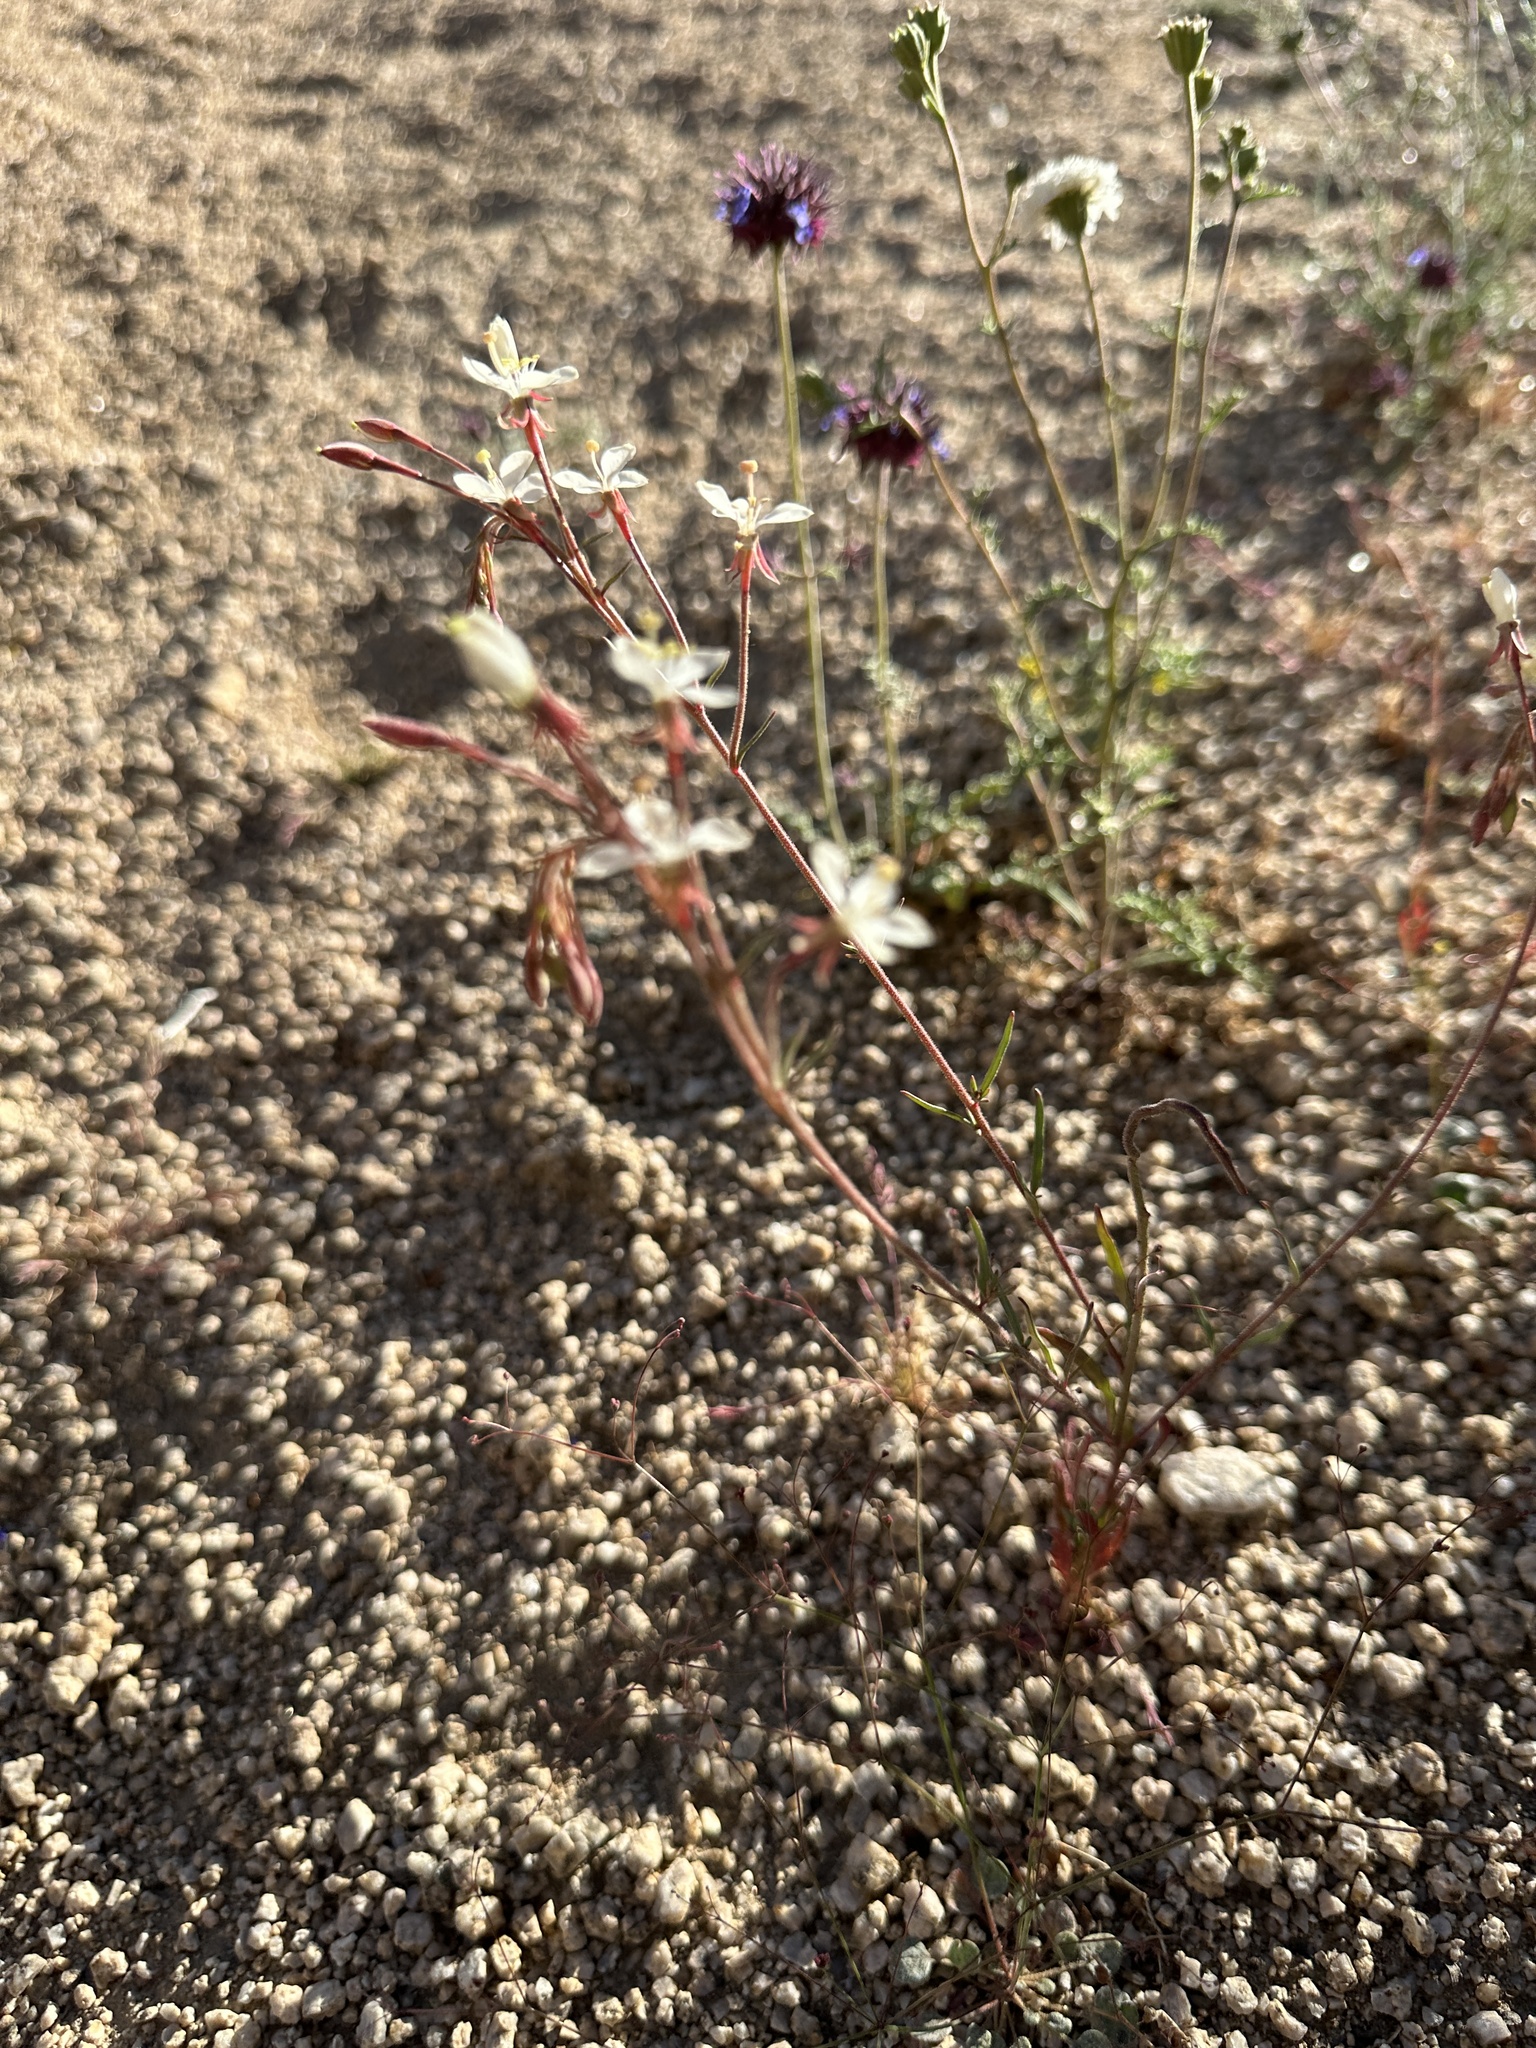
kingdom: Plantae
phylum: Tracheophyta
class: Magnoliopsida
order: Myrtales
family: Onagraceae
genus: Eremothera
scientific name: Eremothera refracta
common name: Narrowleaf suncup
